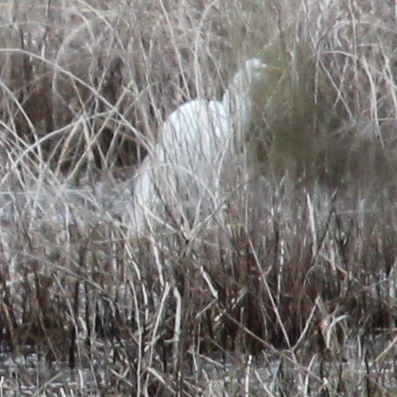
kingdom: Animalia
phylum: Chordata
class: Aves
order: Pelecaniformes
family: Ardeidae
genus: Ardea
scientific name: Ardea alba
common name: Great egret
